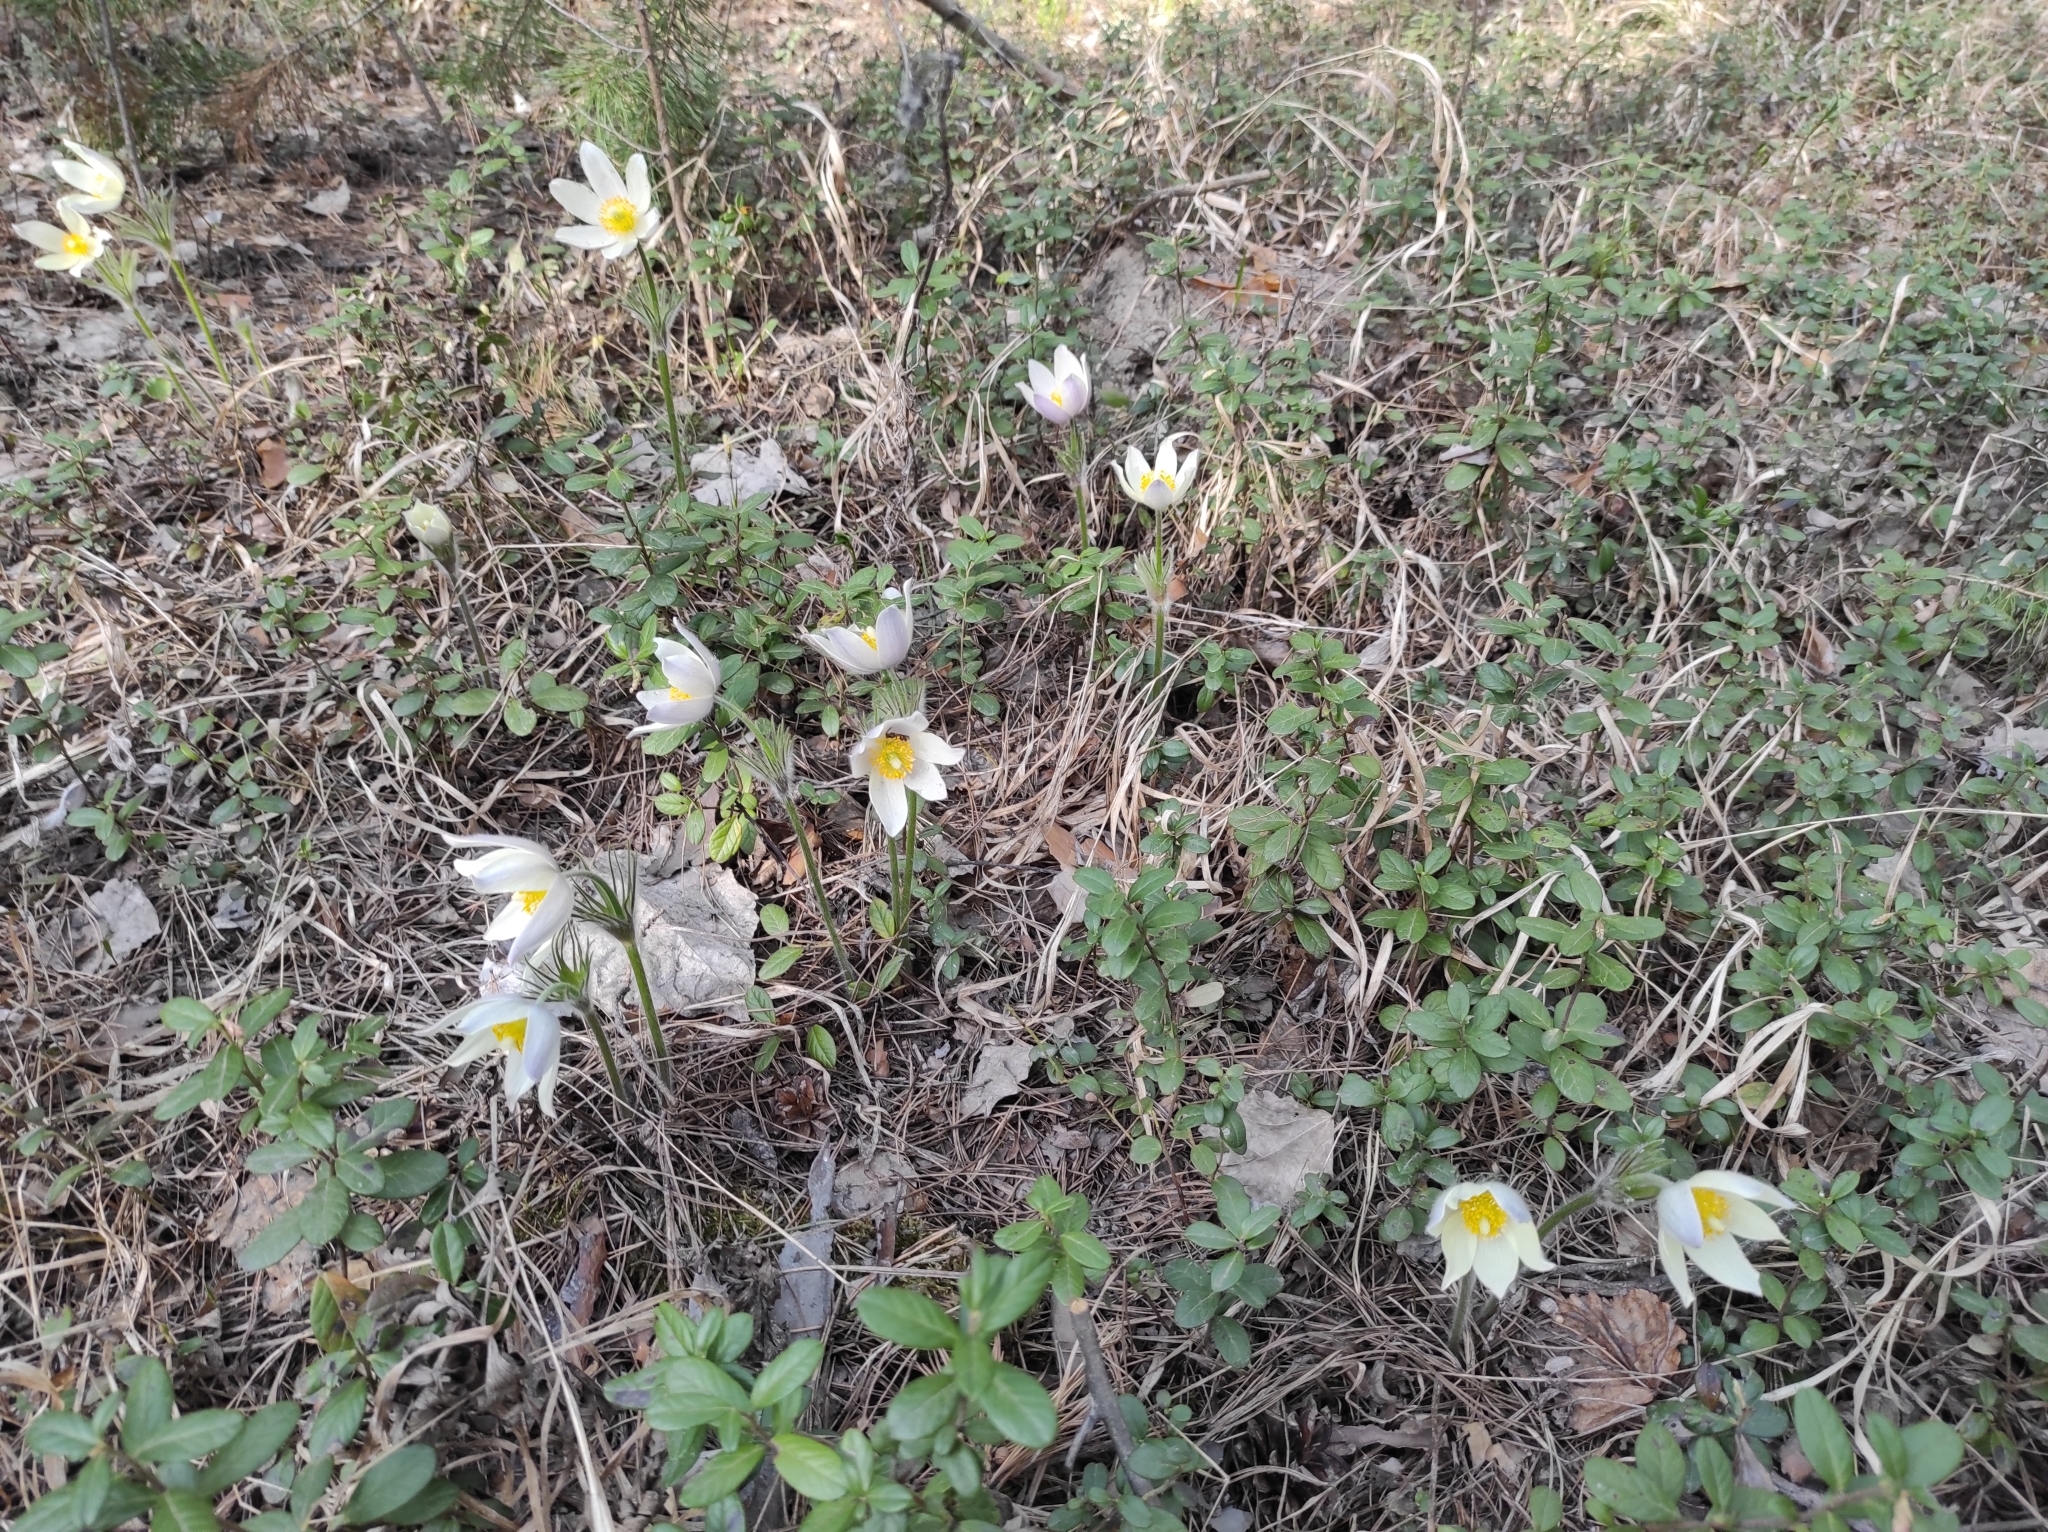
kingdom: Plantae
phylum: Tracheophyta
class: Magnoliopsida
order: Ericales
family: Ericaceae
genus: Vaccinium
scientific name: Vaccinium vitis-idaea
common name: Cowberry
